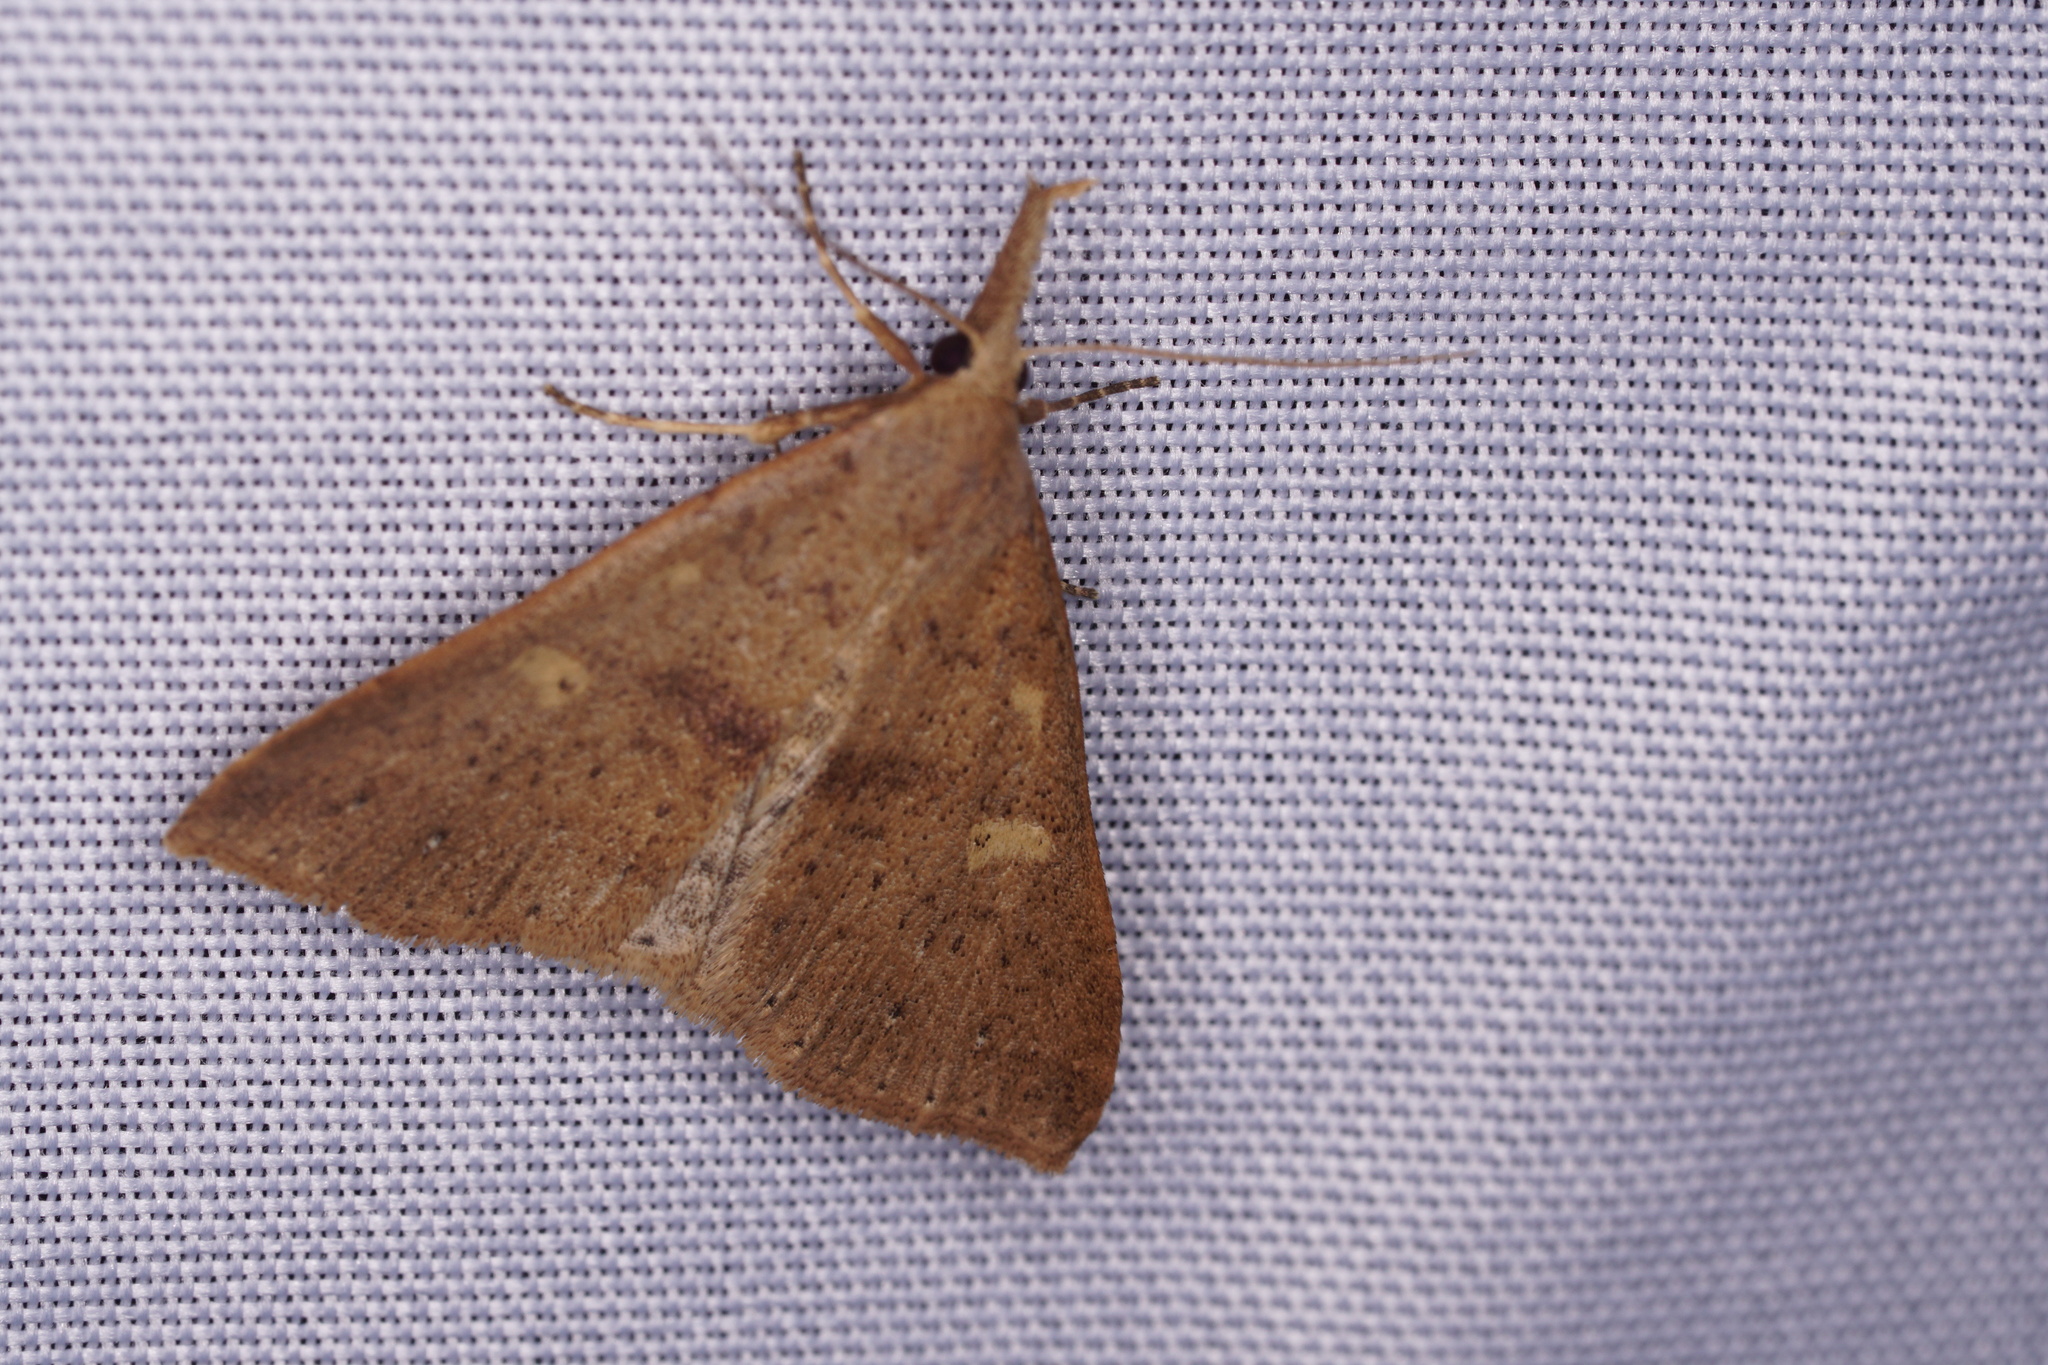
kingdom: Animalia
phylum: Arthropoda
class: Insecta
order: Lepidoptera
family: Erebidae
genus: Renia
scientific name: Renia salusalis
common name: Dotted renia moth
